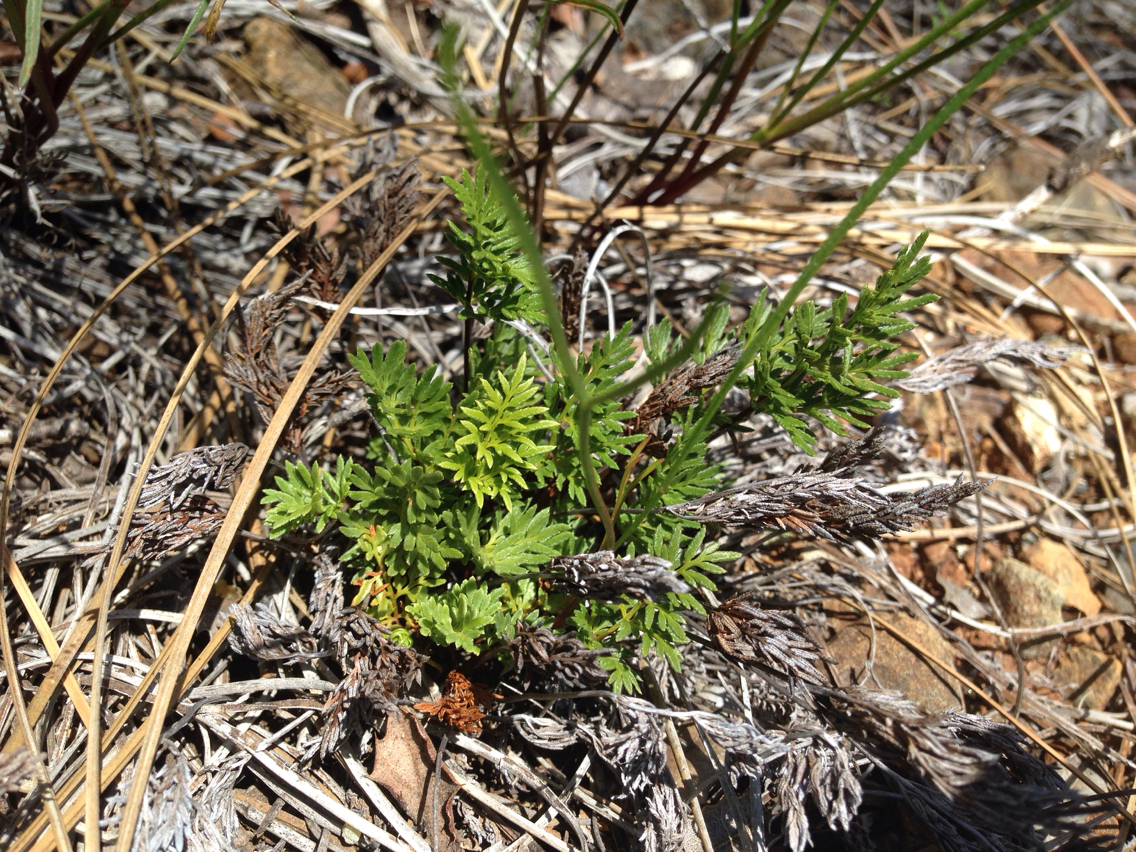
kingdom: Plantae
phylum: Tracheophyta
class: Polypodiopsida
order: Polypodiales
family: Pteridaceae
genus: Aspidotis
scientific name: Aspidotis densa
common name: Indian's dream
